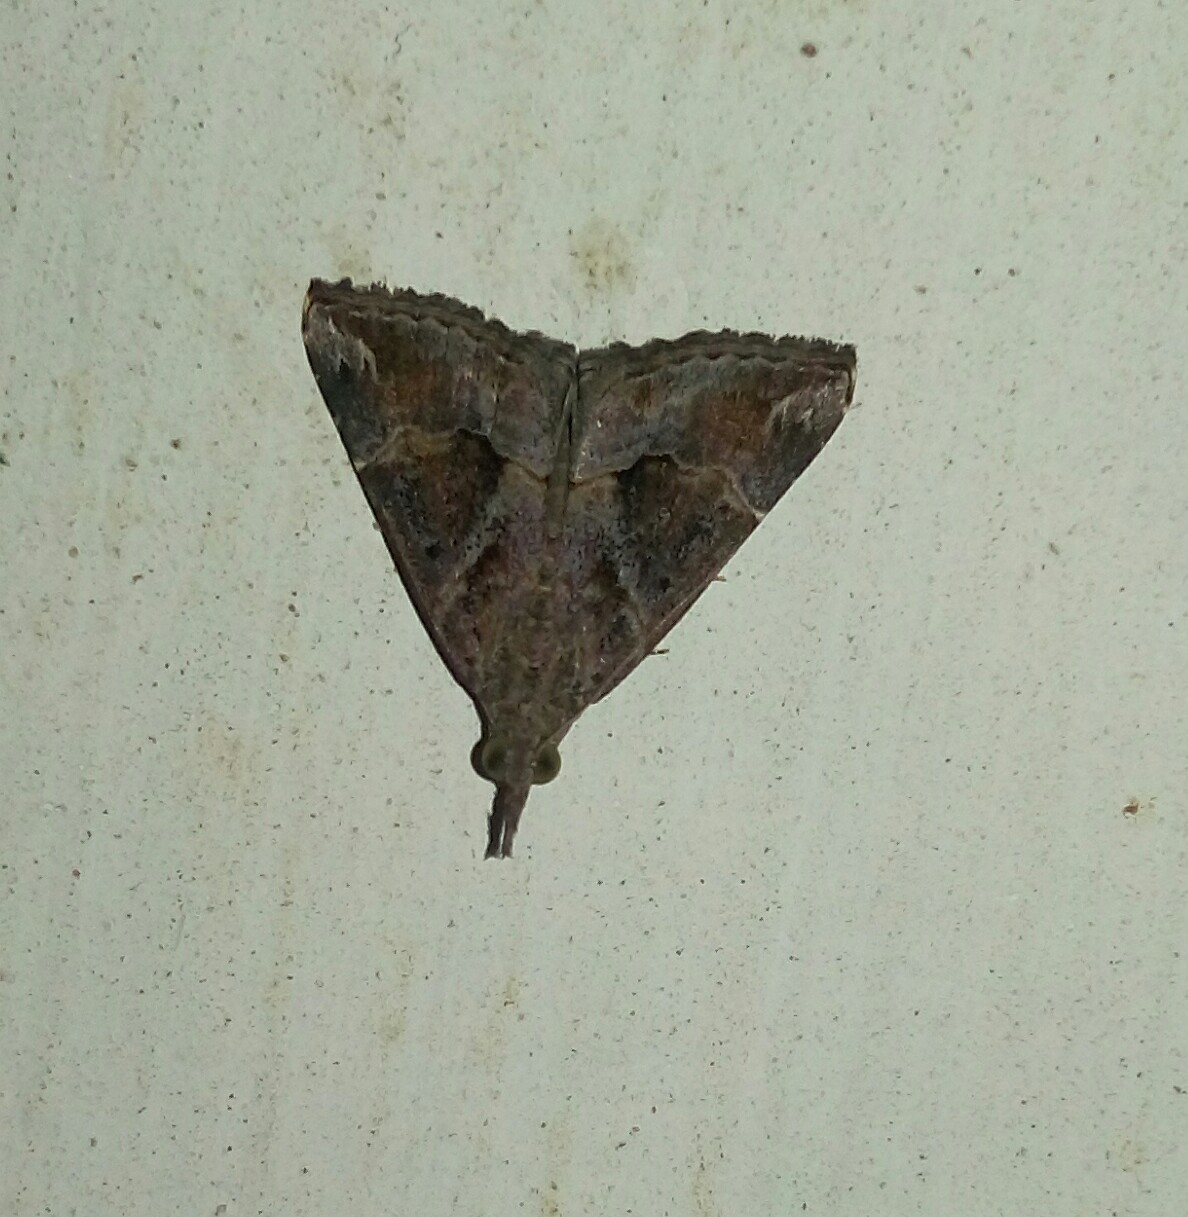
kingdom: Animalia
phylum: Arthropoda
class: Insecta
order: Lepidoptera
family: Erebidae
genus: Hypena
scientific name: Hypena commixtalis
